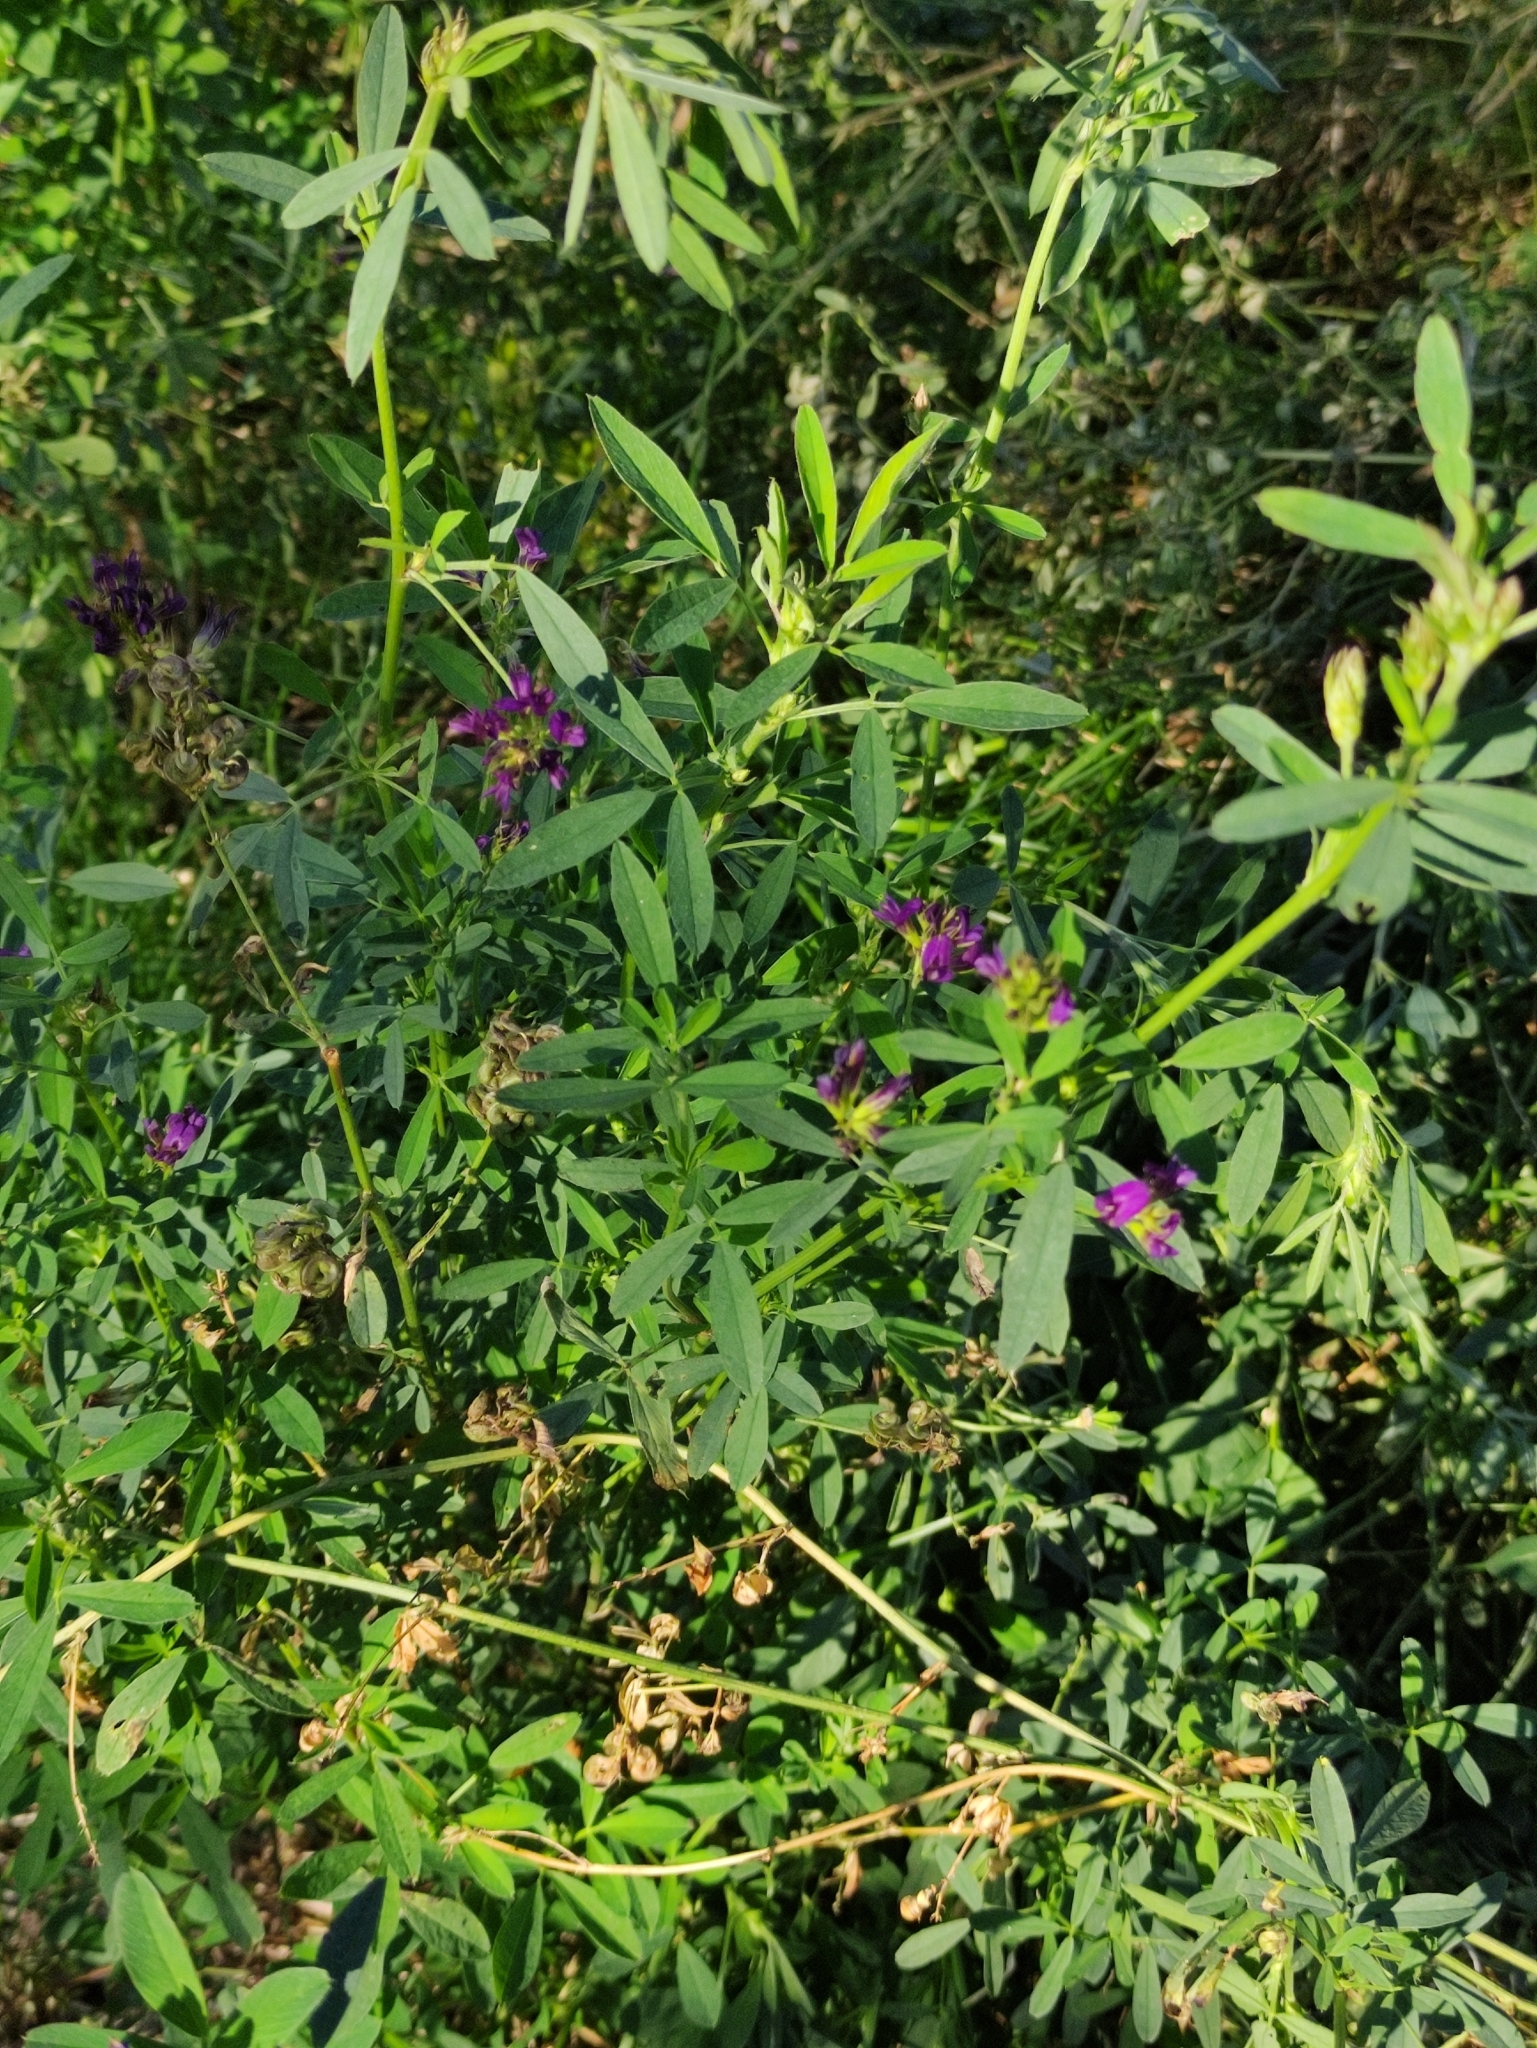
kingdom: Plantae
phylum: Tracheophyta
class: Magnoliopsida
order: Fabales
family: Fabaceae
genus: Medicago
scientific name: Medicago sativa
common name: Alfalfa
